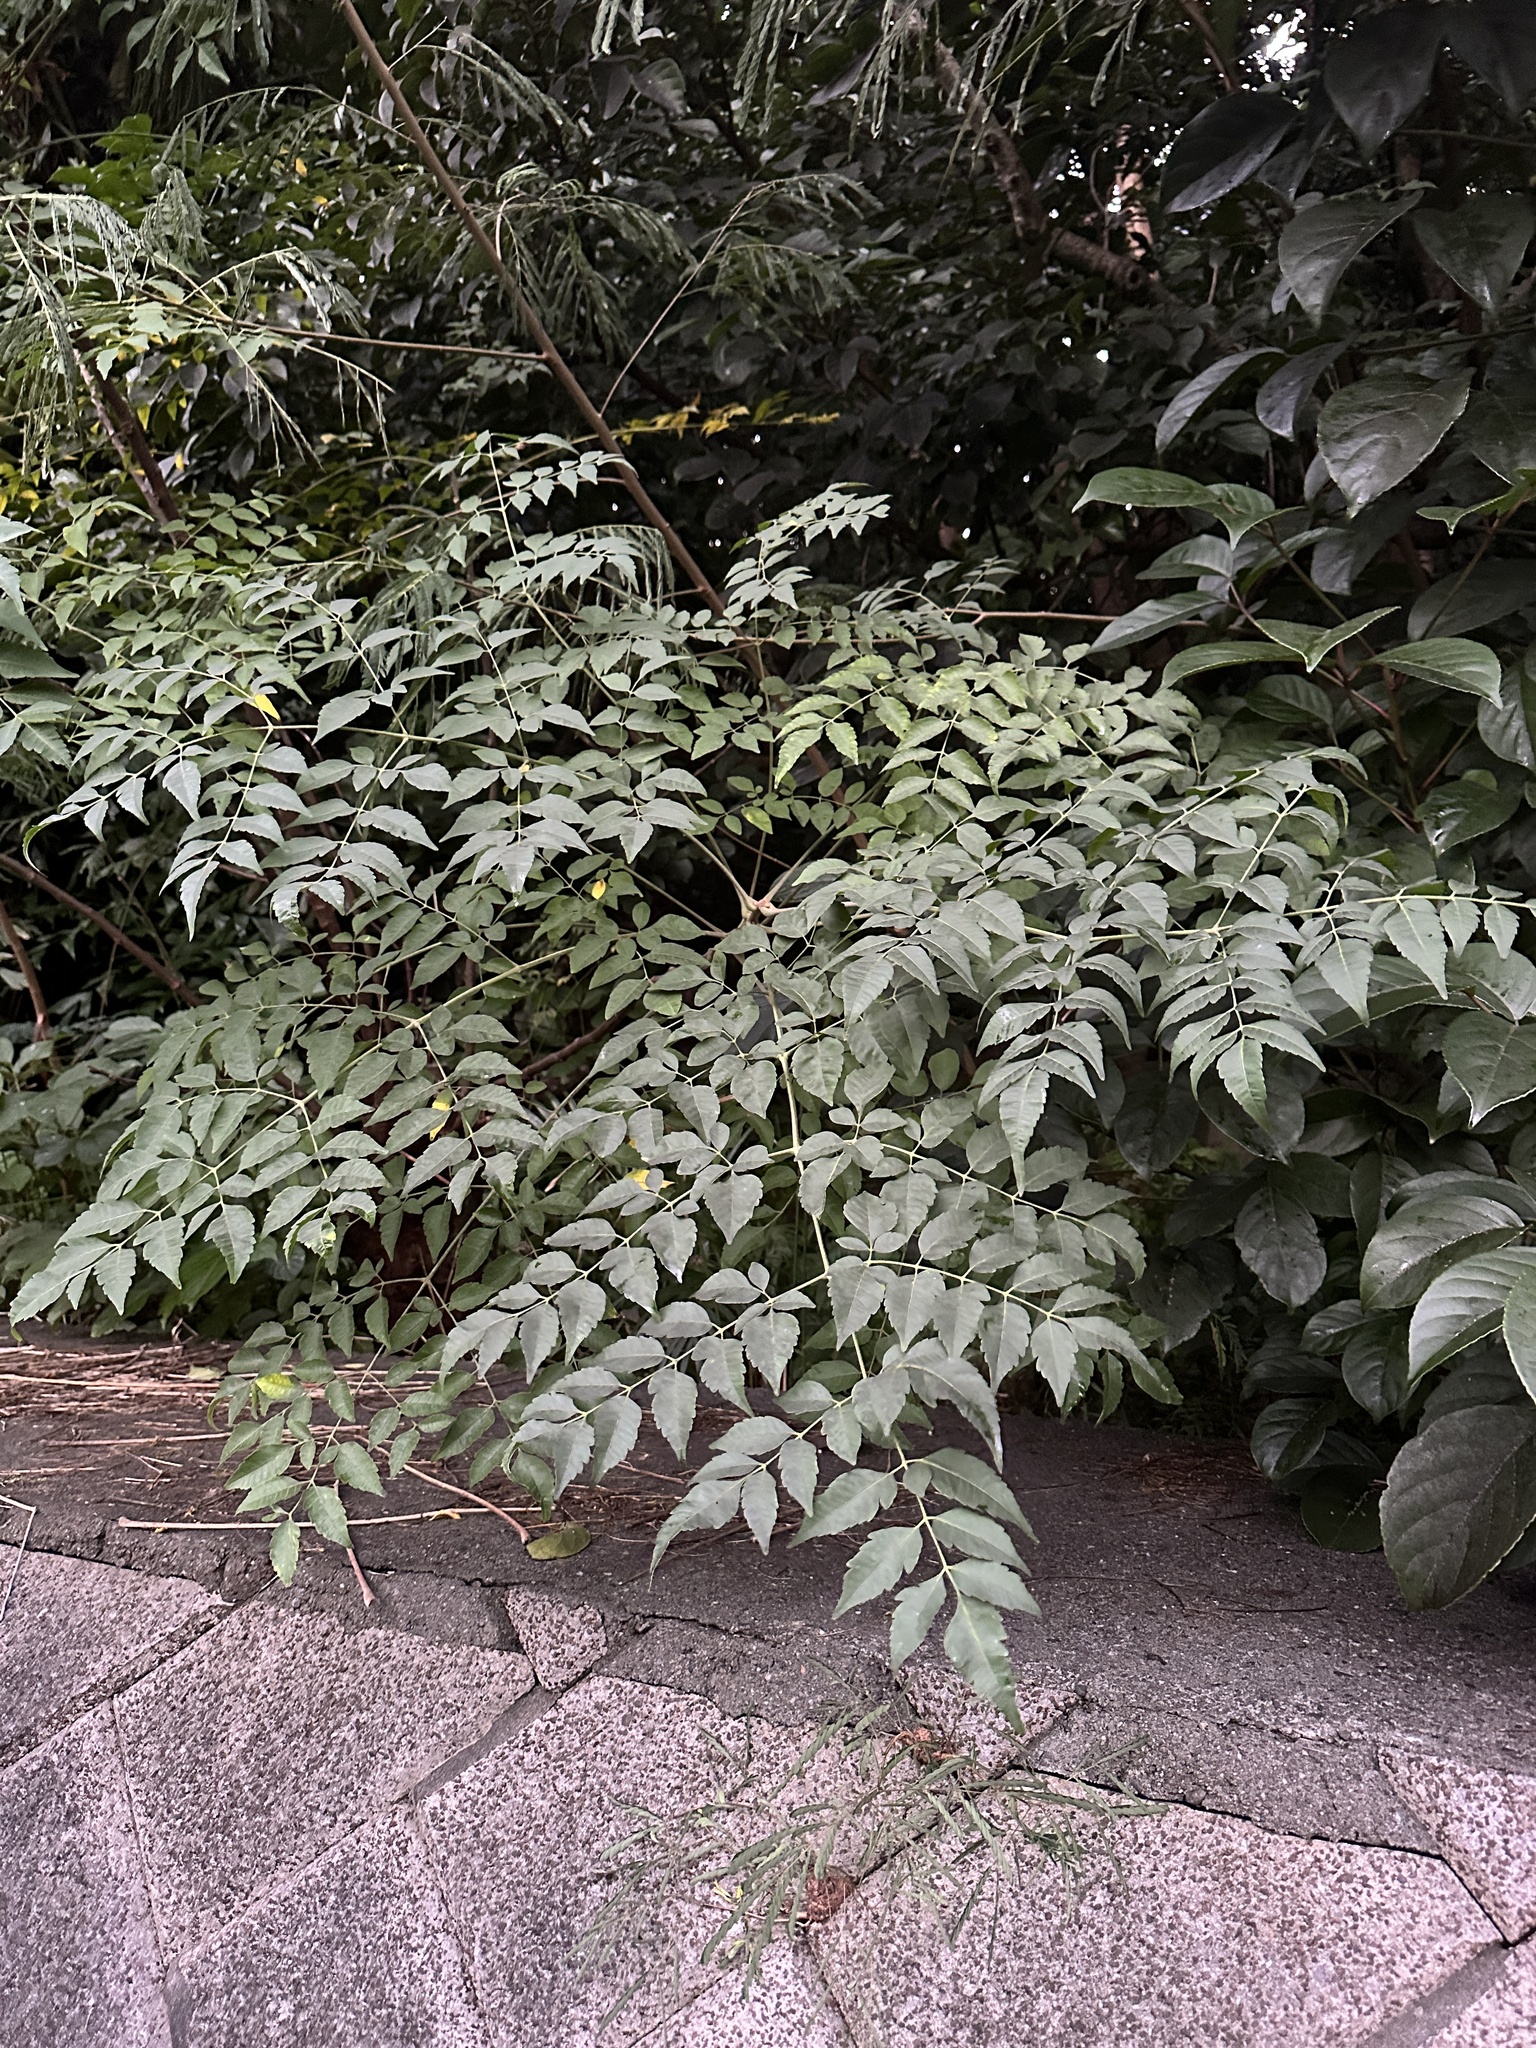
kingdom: Plantae
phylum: Tracheophyta
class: Magnoliopsida
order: Sapindales
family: Meliaceae
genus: Melia
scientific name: Melia azedarach
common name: Chinaberrytree
